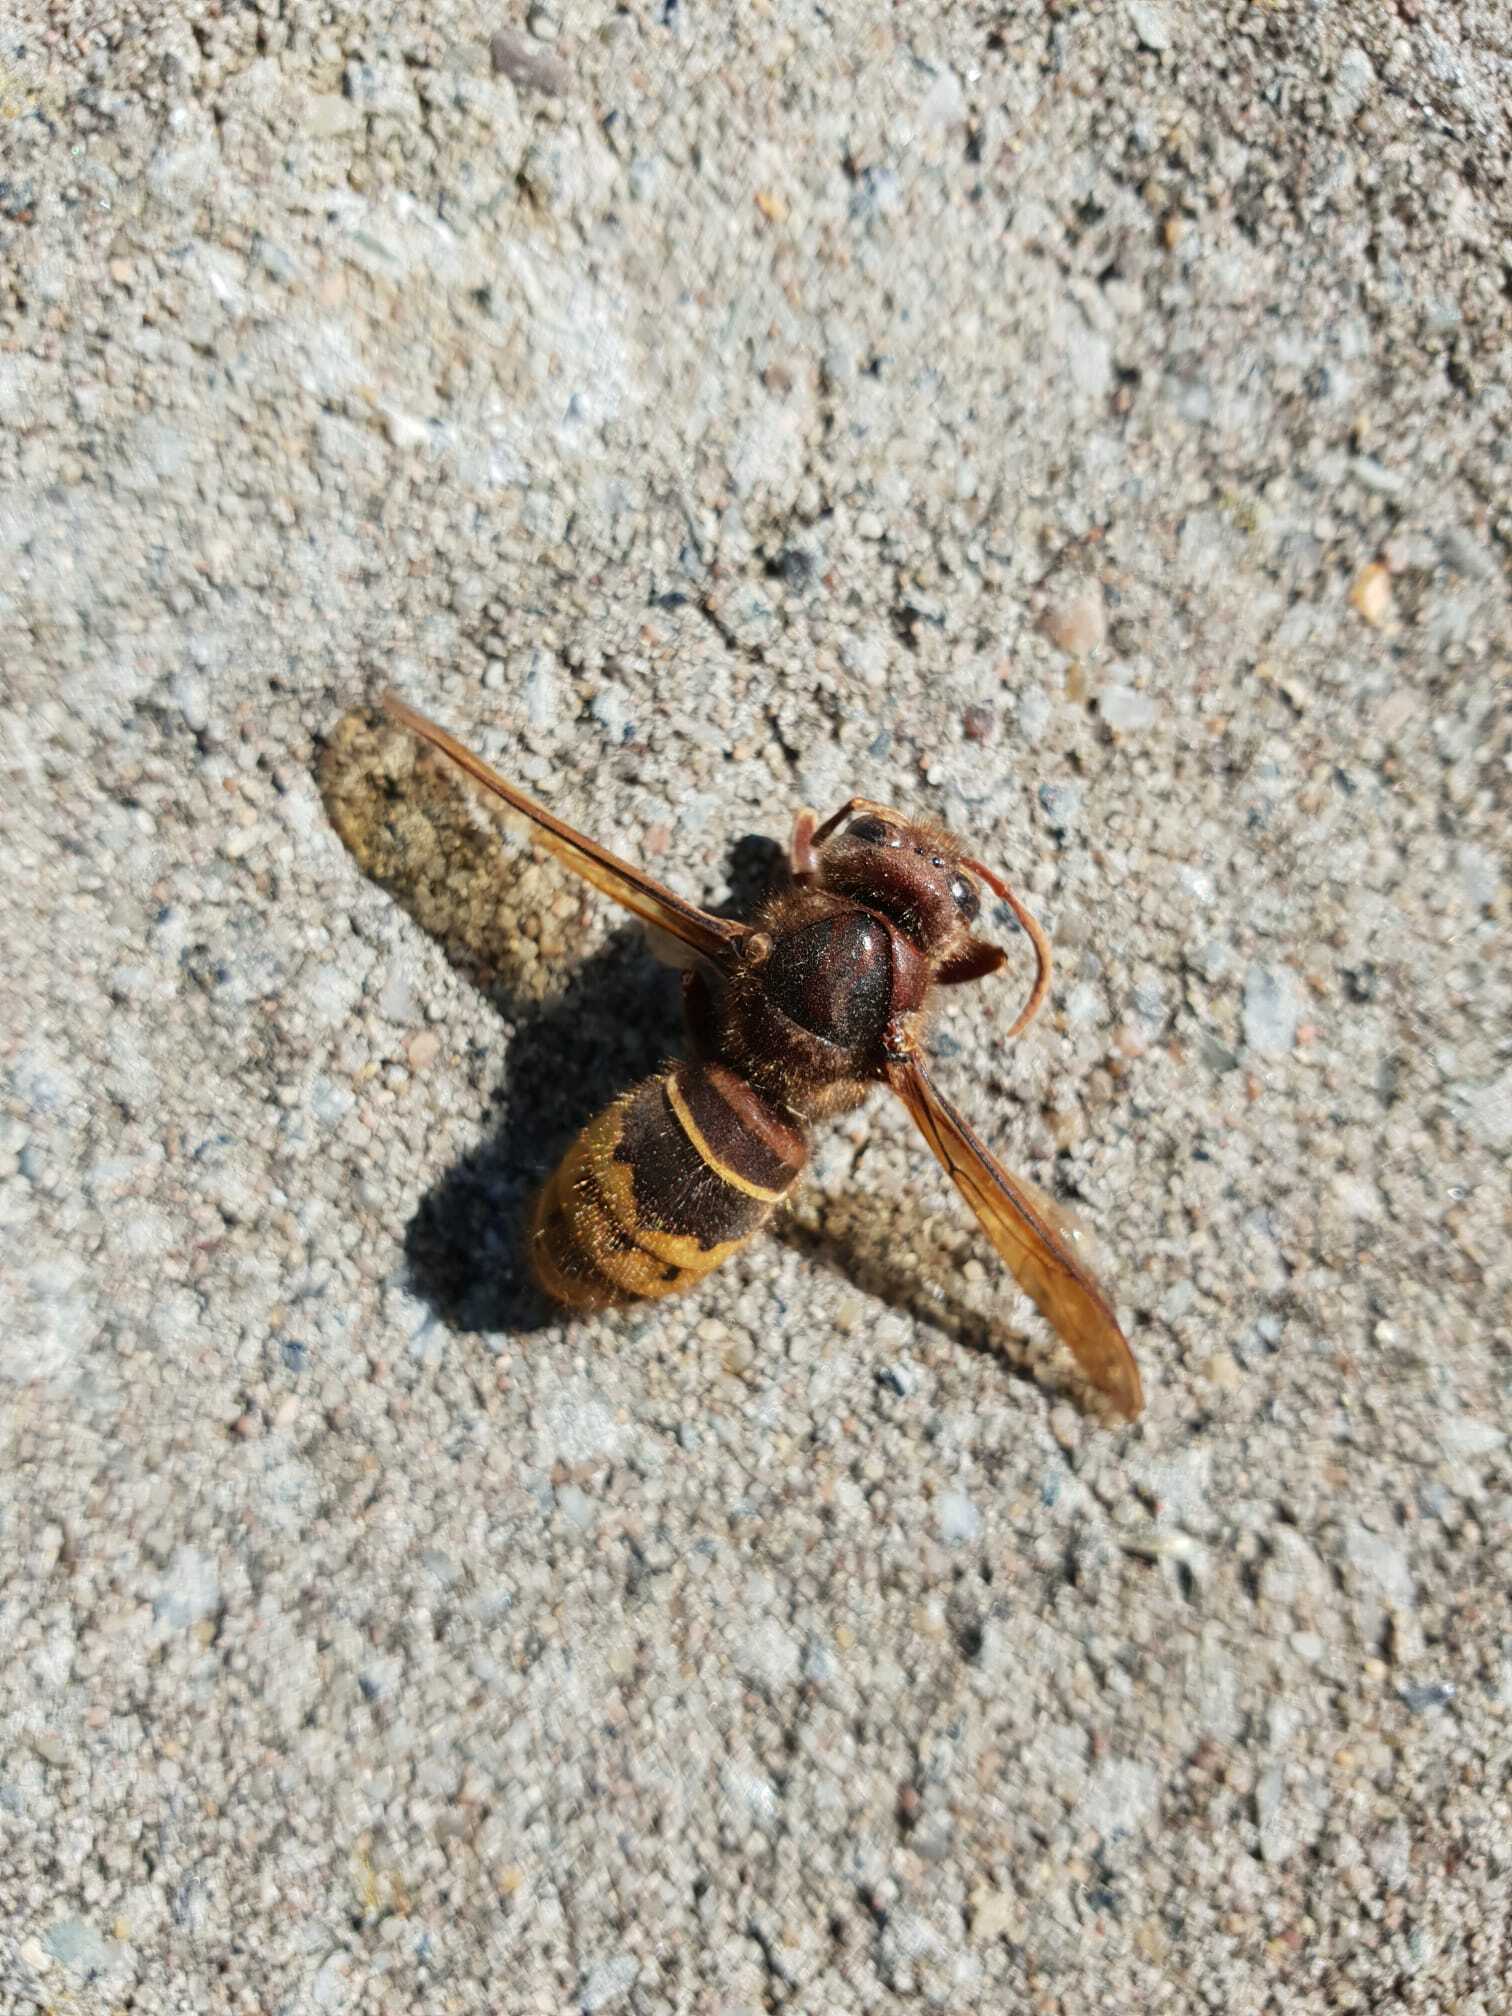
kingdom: Animalia
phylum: Arthropoda
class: Insecta
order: Hymenoptera
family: Vespidae
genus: Vespa
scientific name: Vespa crabro
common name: Hornet
